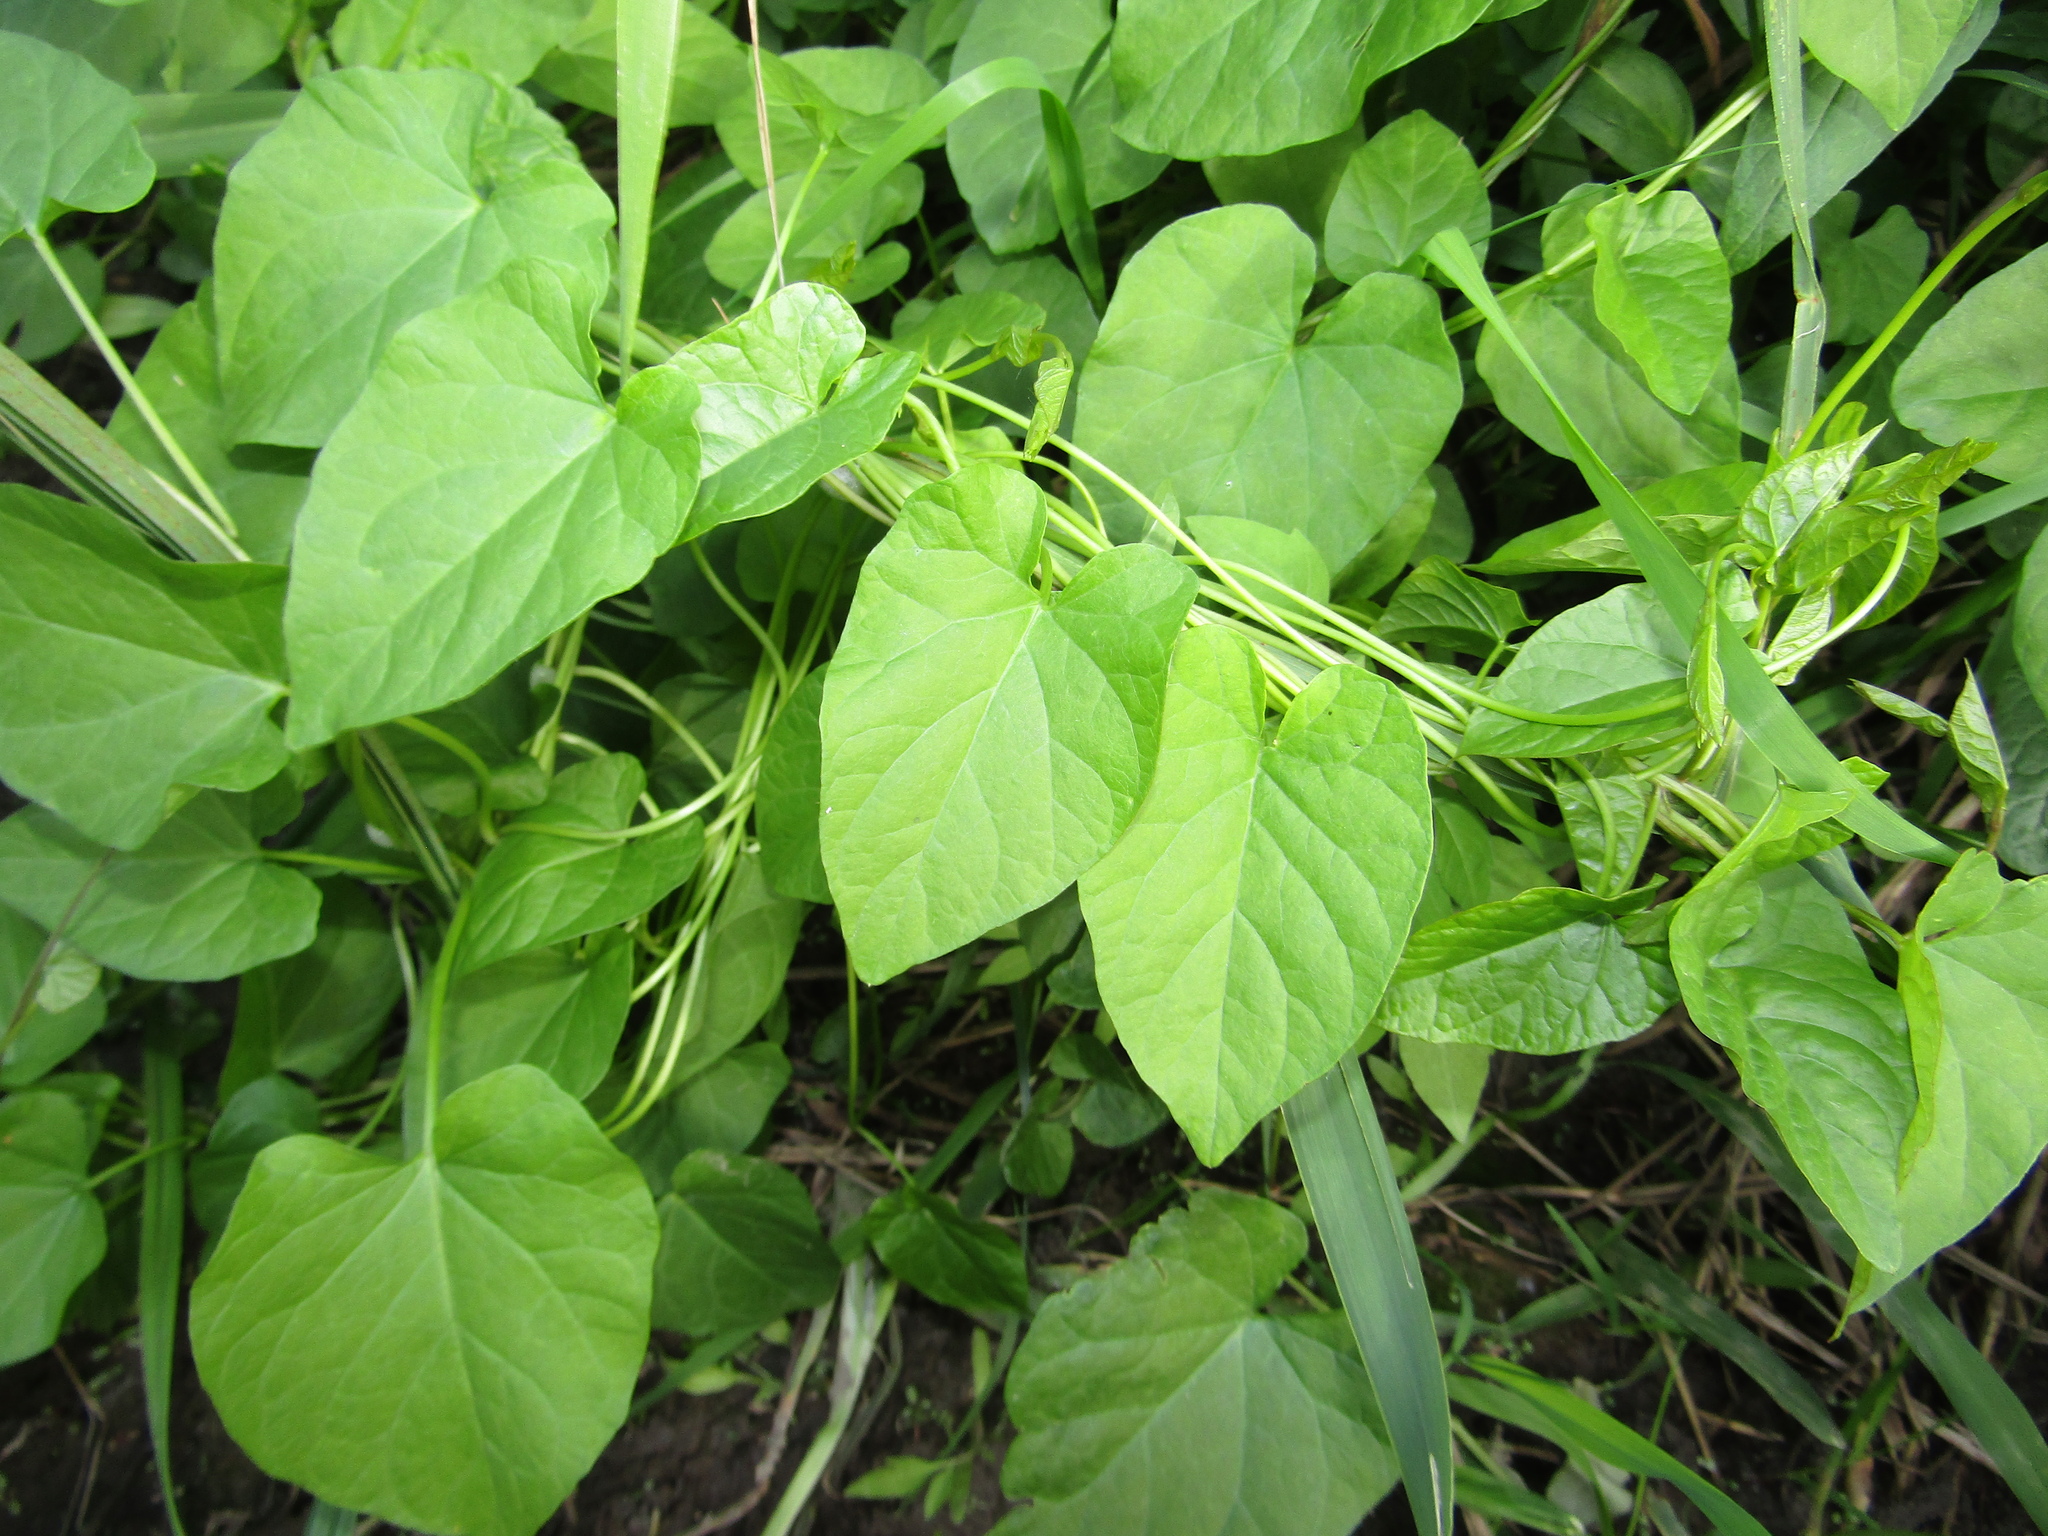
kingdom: Plantae
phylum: Tracheophyta
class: Magnoliopsida
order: Solanales
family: Convolvulaceae
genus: Calystegia
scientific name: Calystegia
